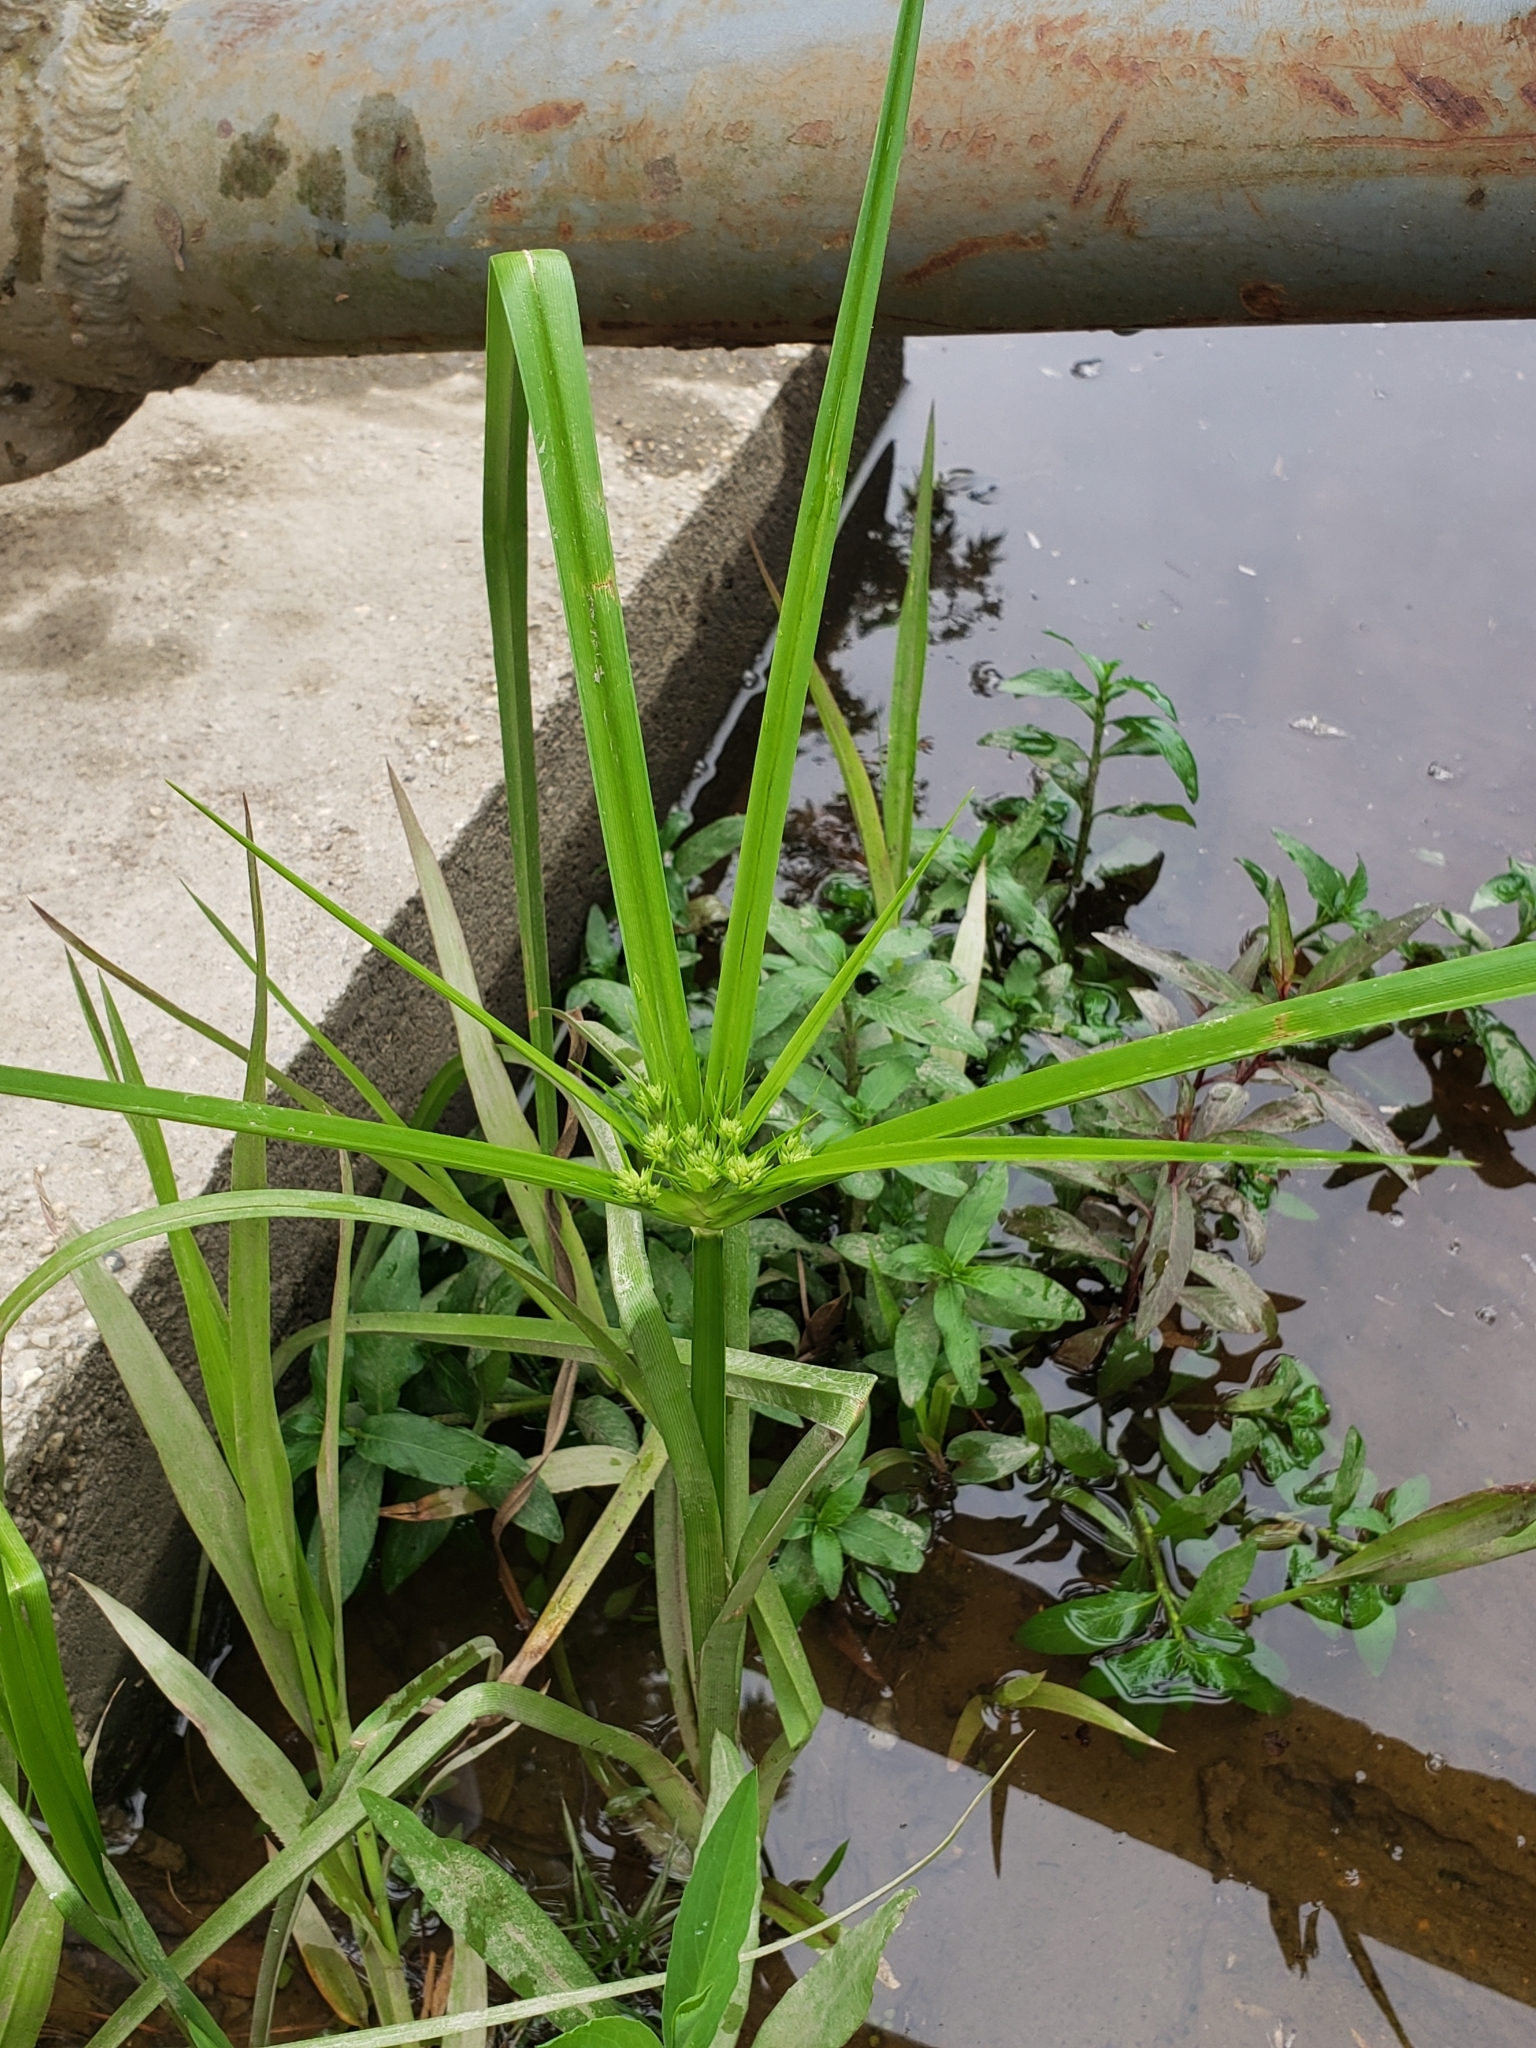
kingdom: Plantae
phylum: Tracheophyta
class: Liliopsida
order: Poales
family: Cyperaceae
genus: Cyperus
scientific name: Cyperus virens
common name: Green flatsedge
